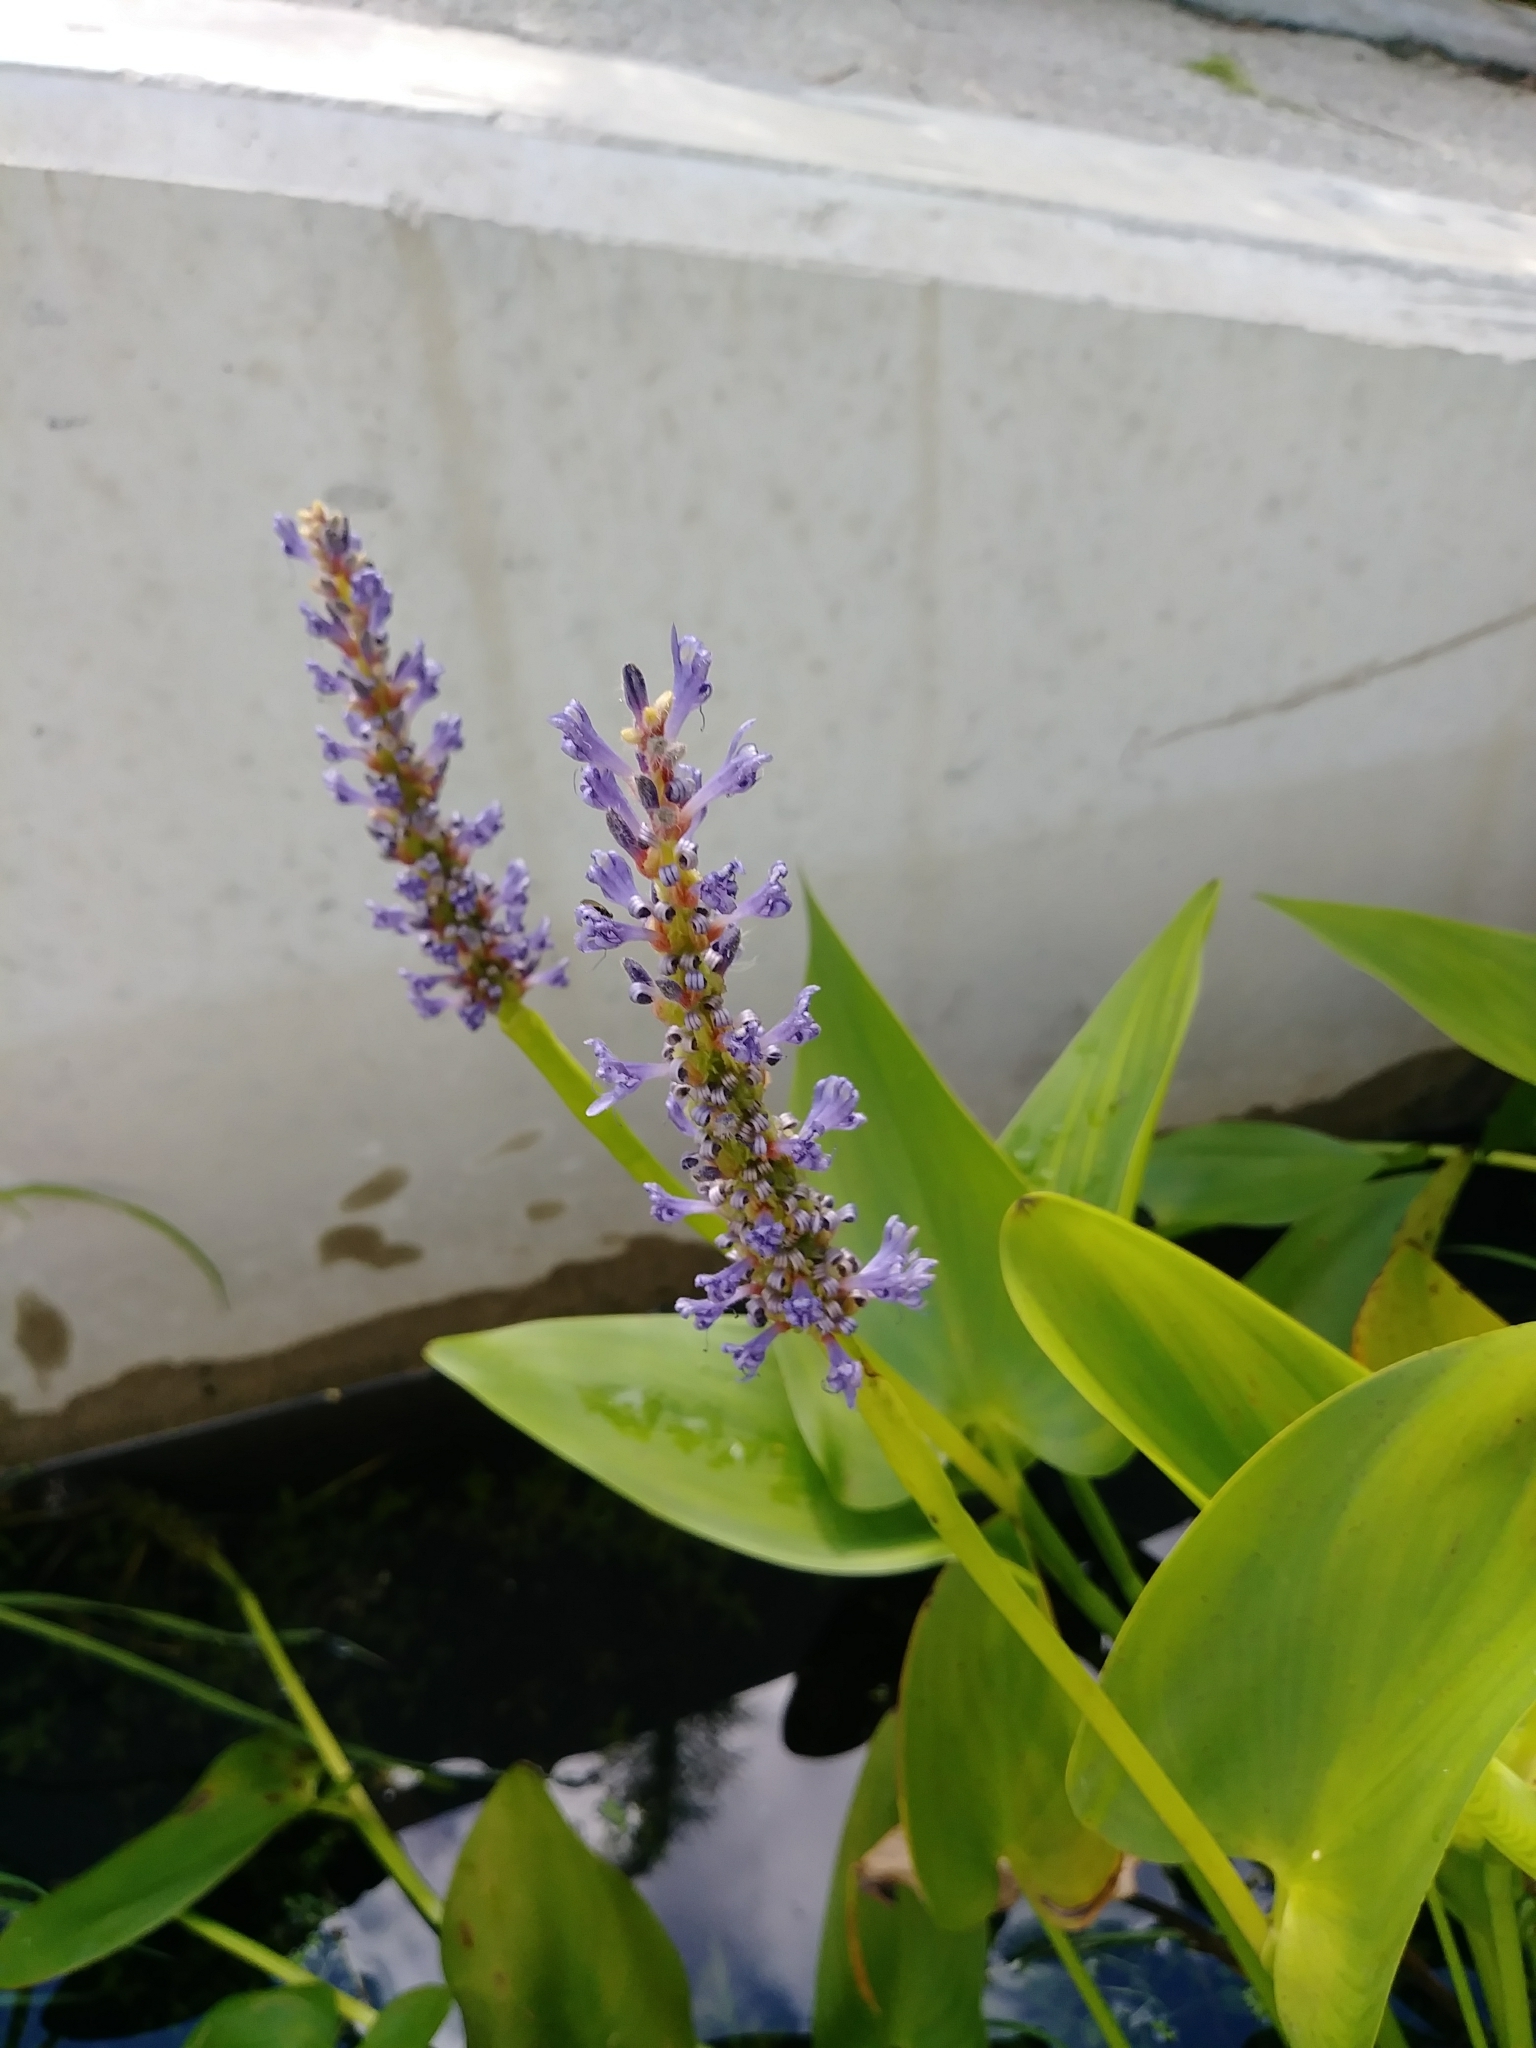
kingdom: Plantae
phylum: Tracheophyta
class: Liliopsida
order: Commelinales
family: Pontederiaceae
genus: Pontederia
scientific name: Pontederia cordata
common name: Pickerelweed
